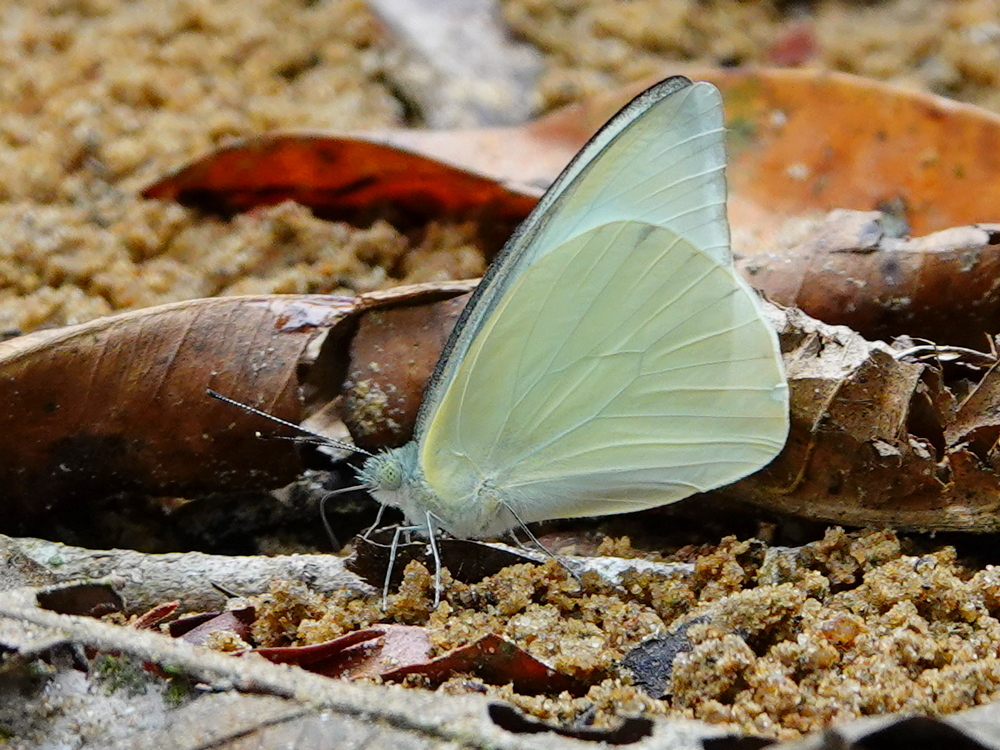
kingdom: Animalia
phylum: Arthropoda
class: Insecta
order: Lepidoptera
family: Pieridae
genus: Appias
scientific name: Appias albina
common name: Common albatross
